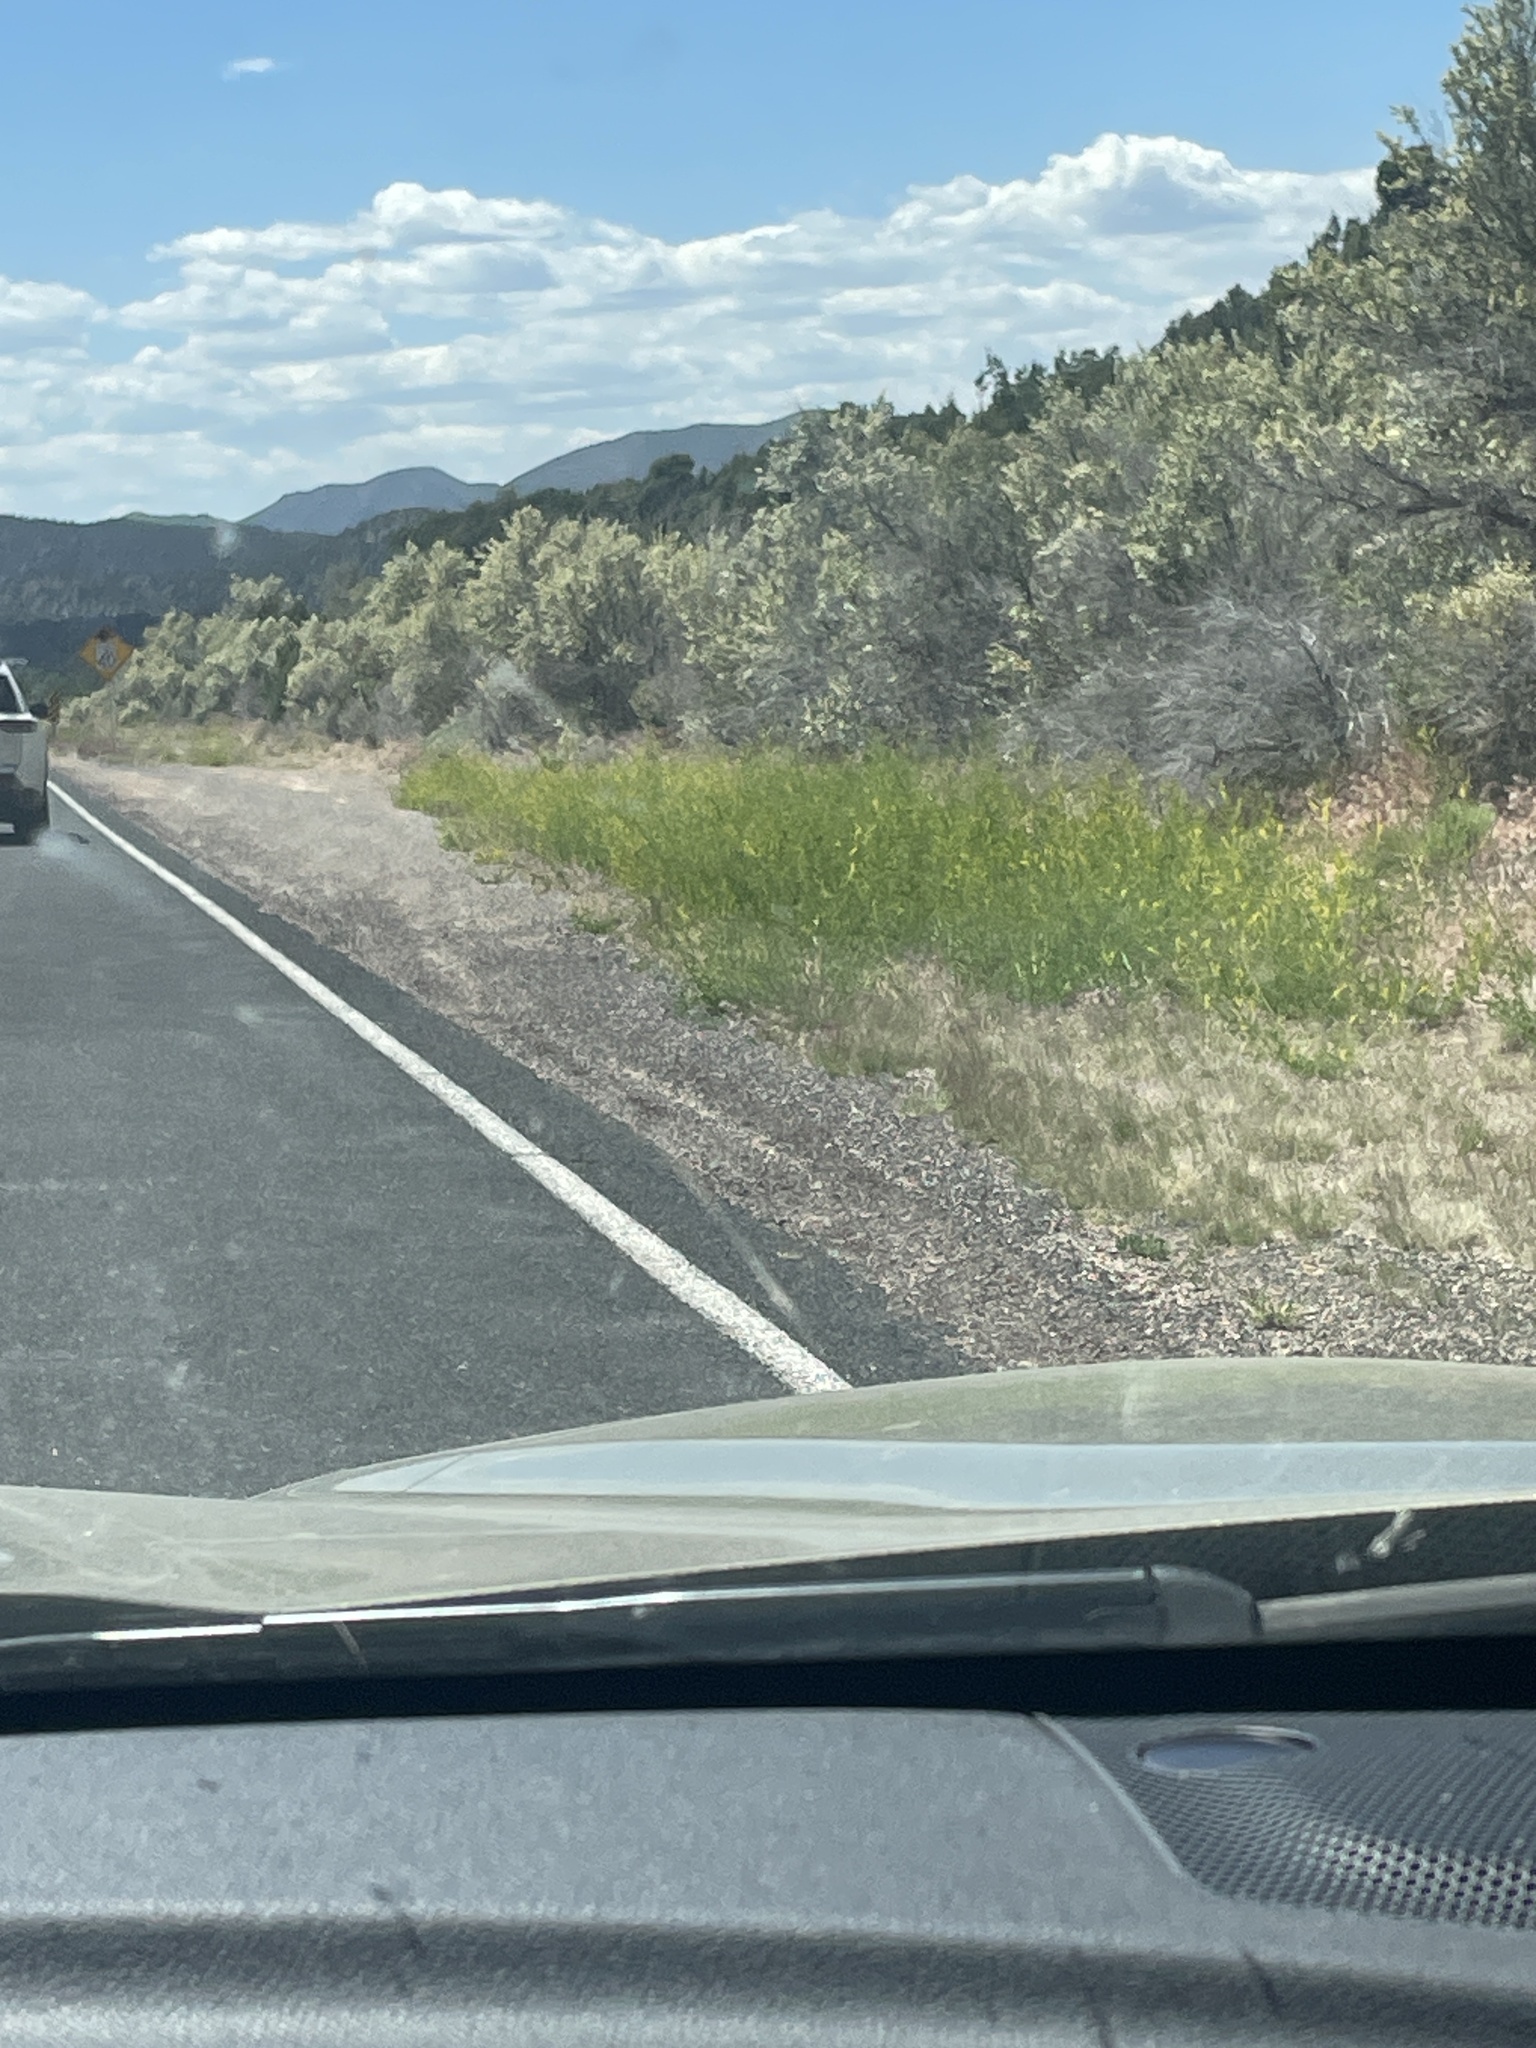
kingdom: Plantae
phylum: Tracheophyta
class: Magnoliopsida
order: Fabales
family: Fabaceae
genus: Melilotus
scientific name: Melilotus officinalis
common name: Sweetclover
